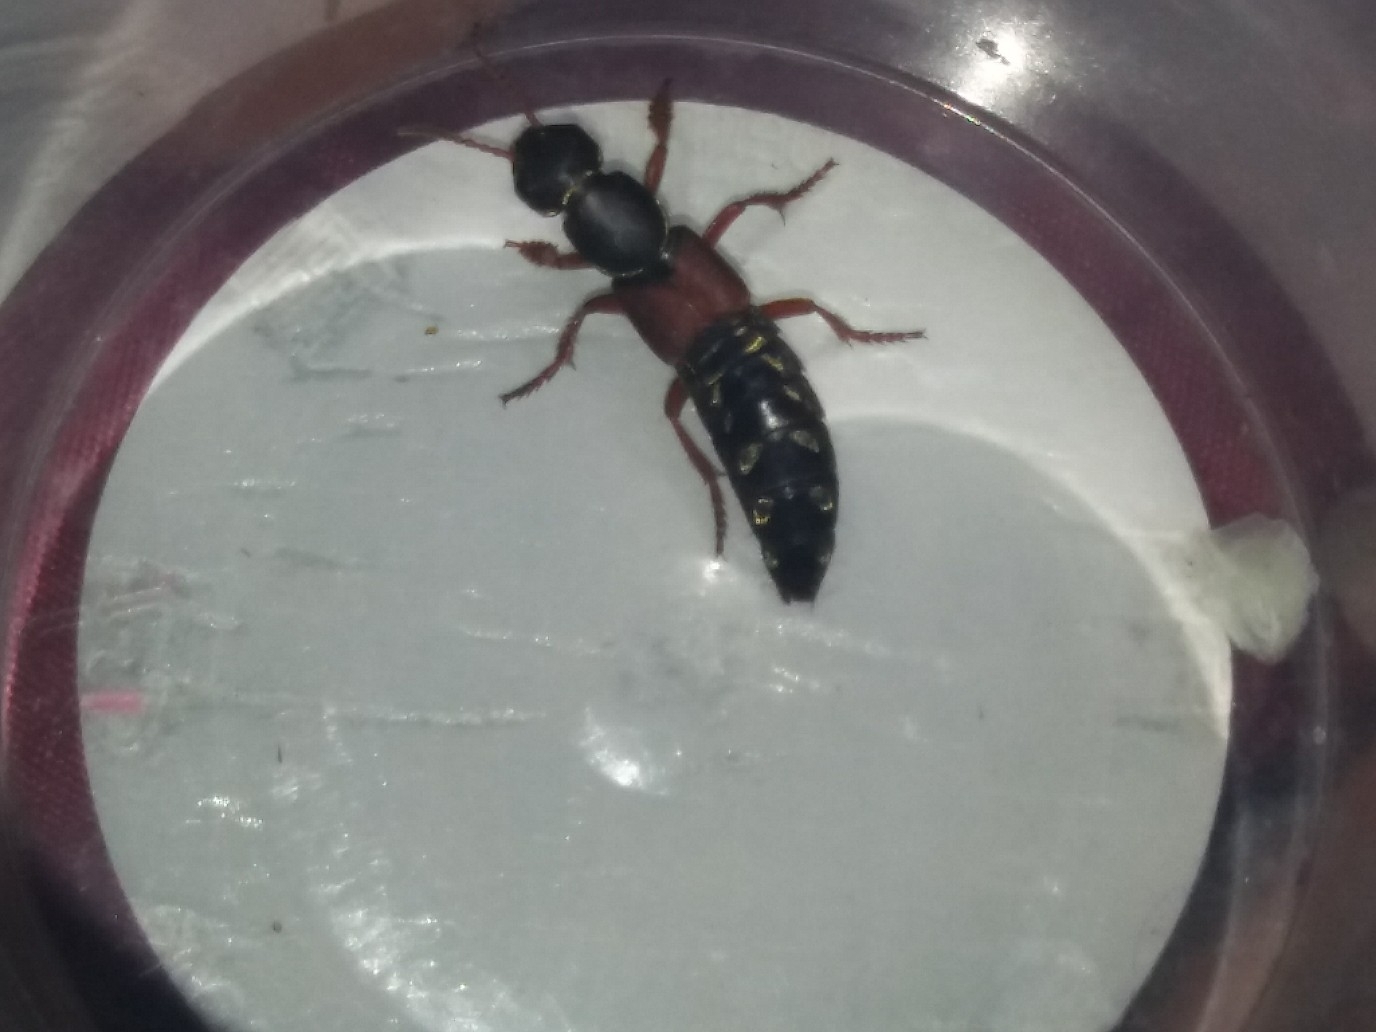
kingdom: Animalia
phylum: Arthropoda
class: Insecta
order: Coleoptera
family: Staphylinidae
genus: Staphylinus
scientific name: Staphylinus caesareus
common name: Staph beetle
